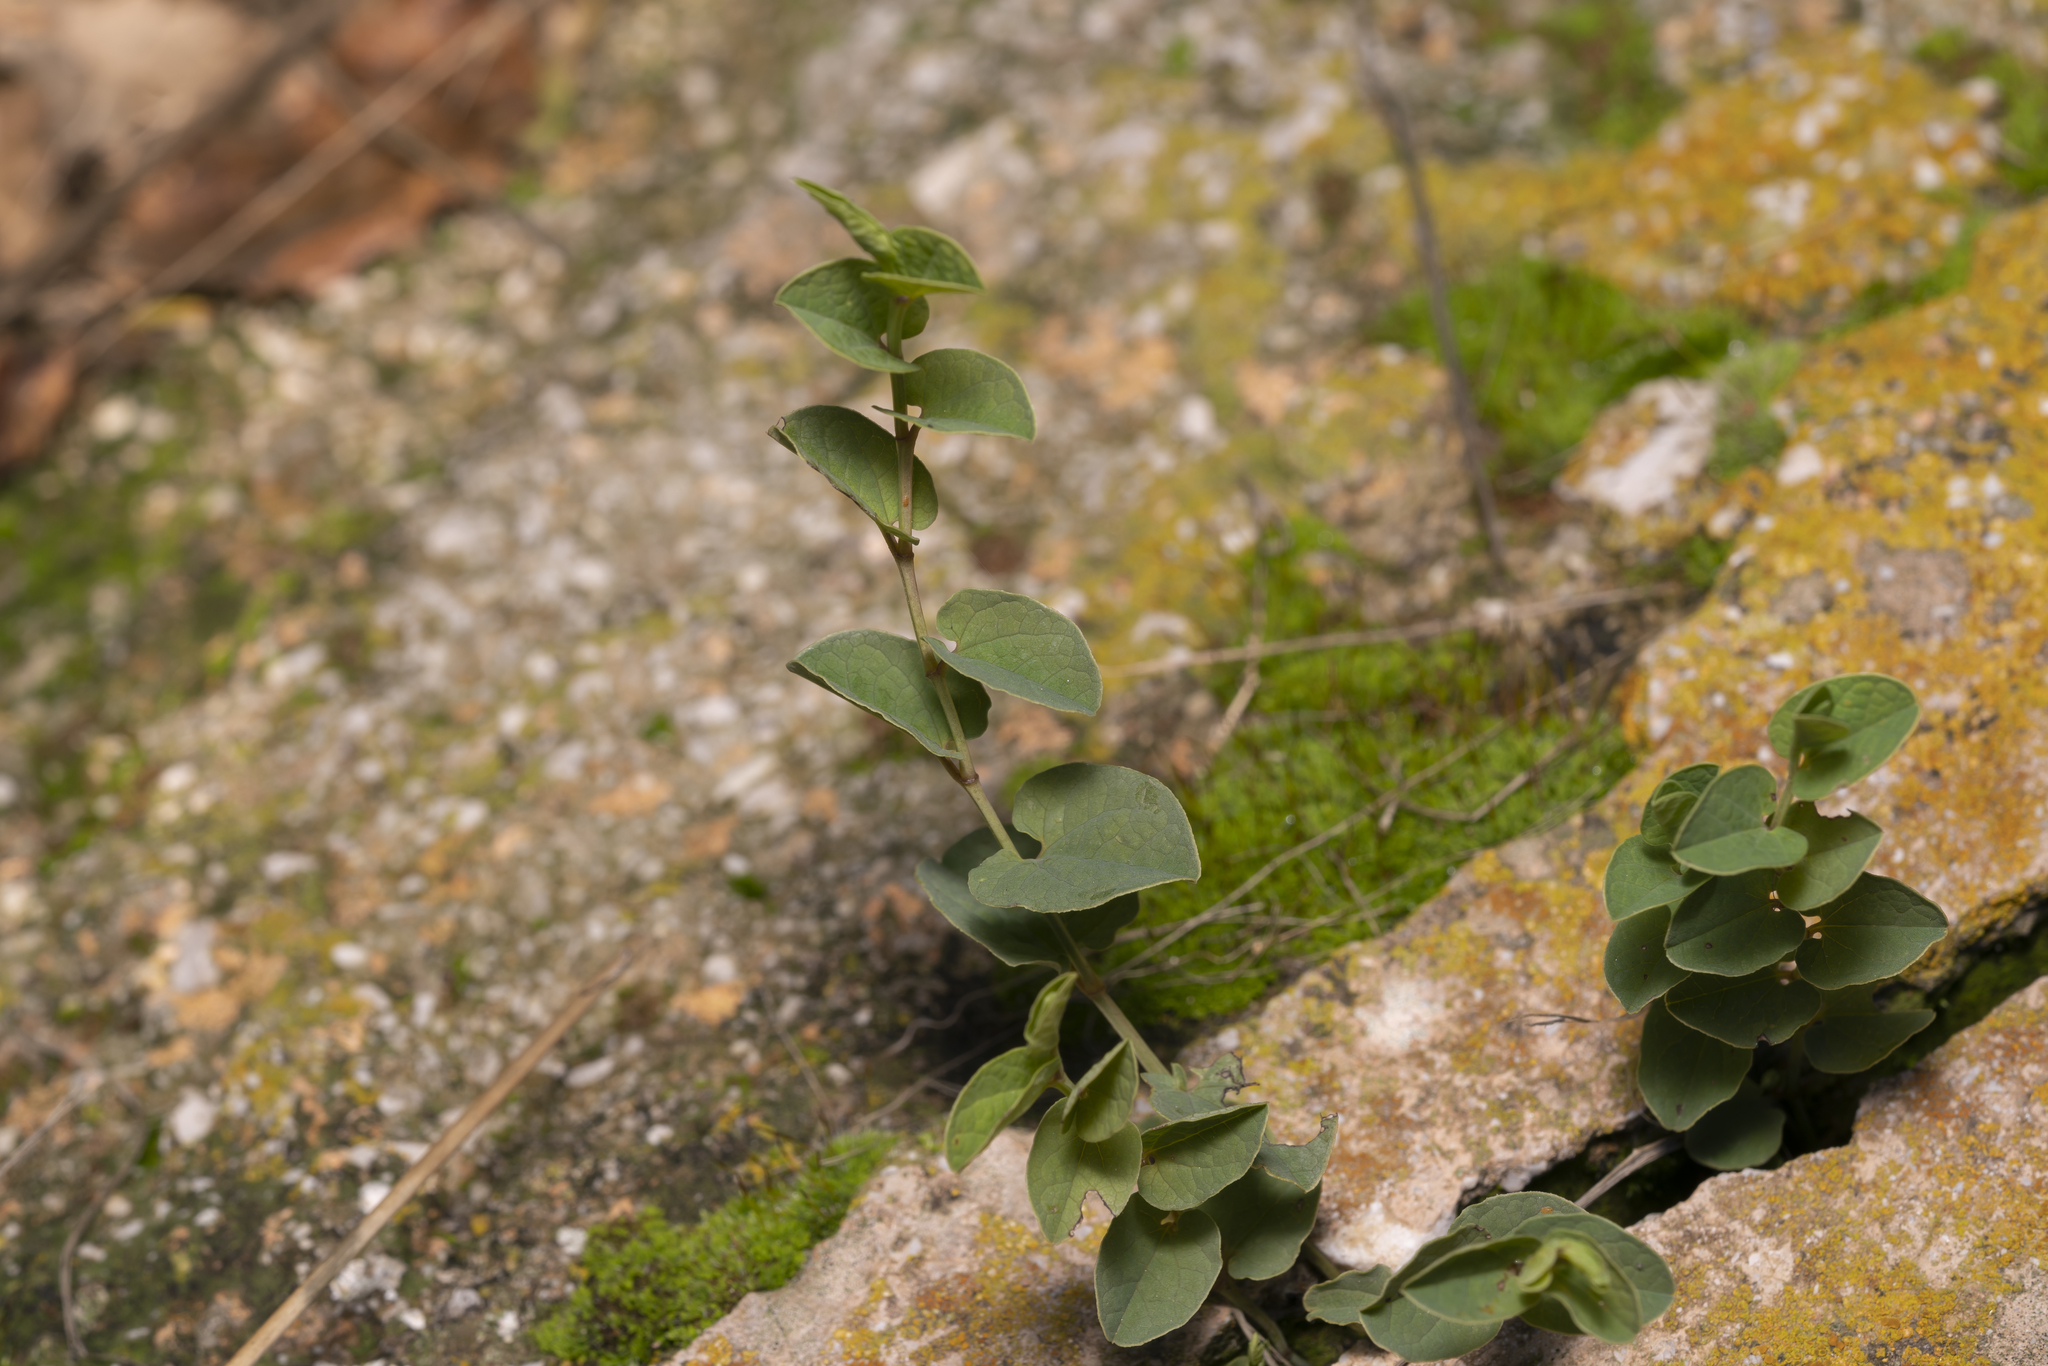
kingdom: Plantae
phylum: Tracheophyta
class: Magnoliopsida
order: Piperales
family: Aristolochiaceae
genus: Aristolochia
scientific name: Aristolochia parvifolia
